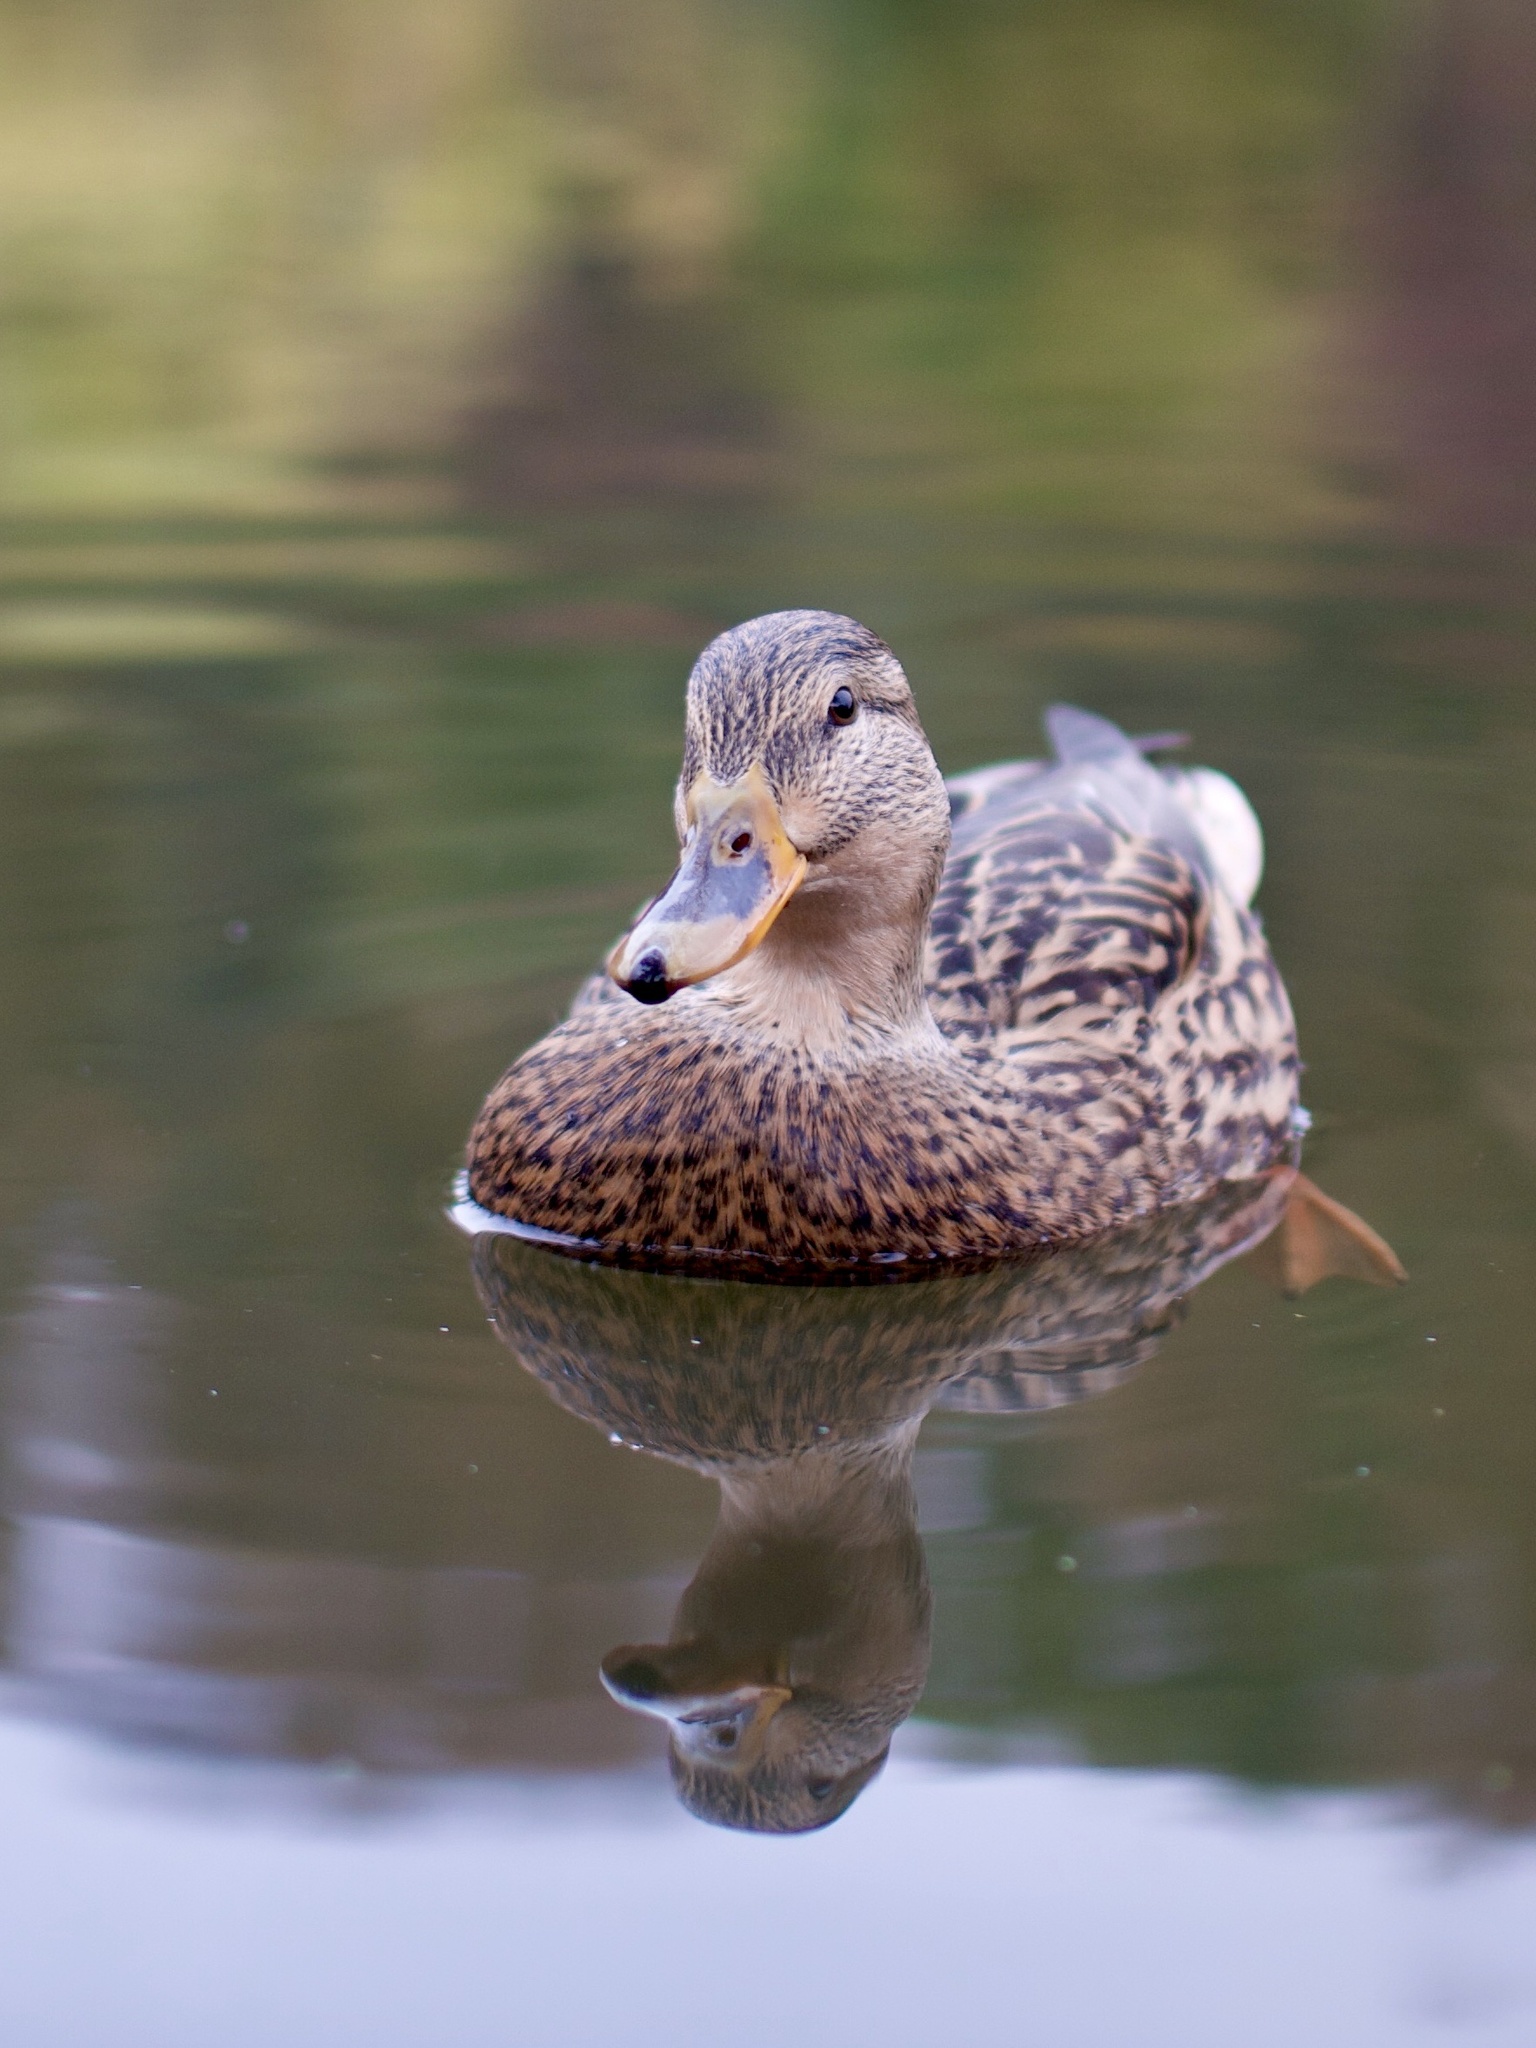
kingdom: Animalia
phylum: Chordata
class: Aves
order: Anseriformes
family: Anatidae
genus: Anas
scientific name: Anas platyrhynchos
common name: Mallard
